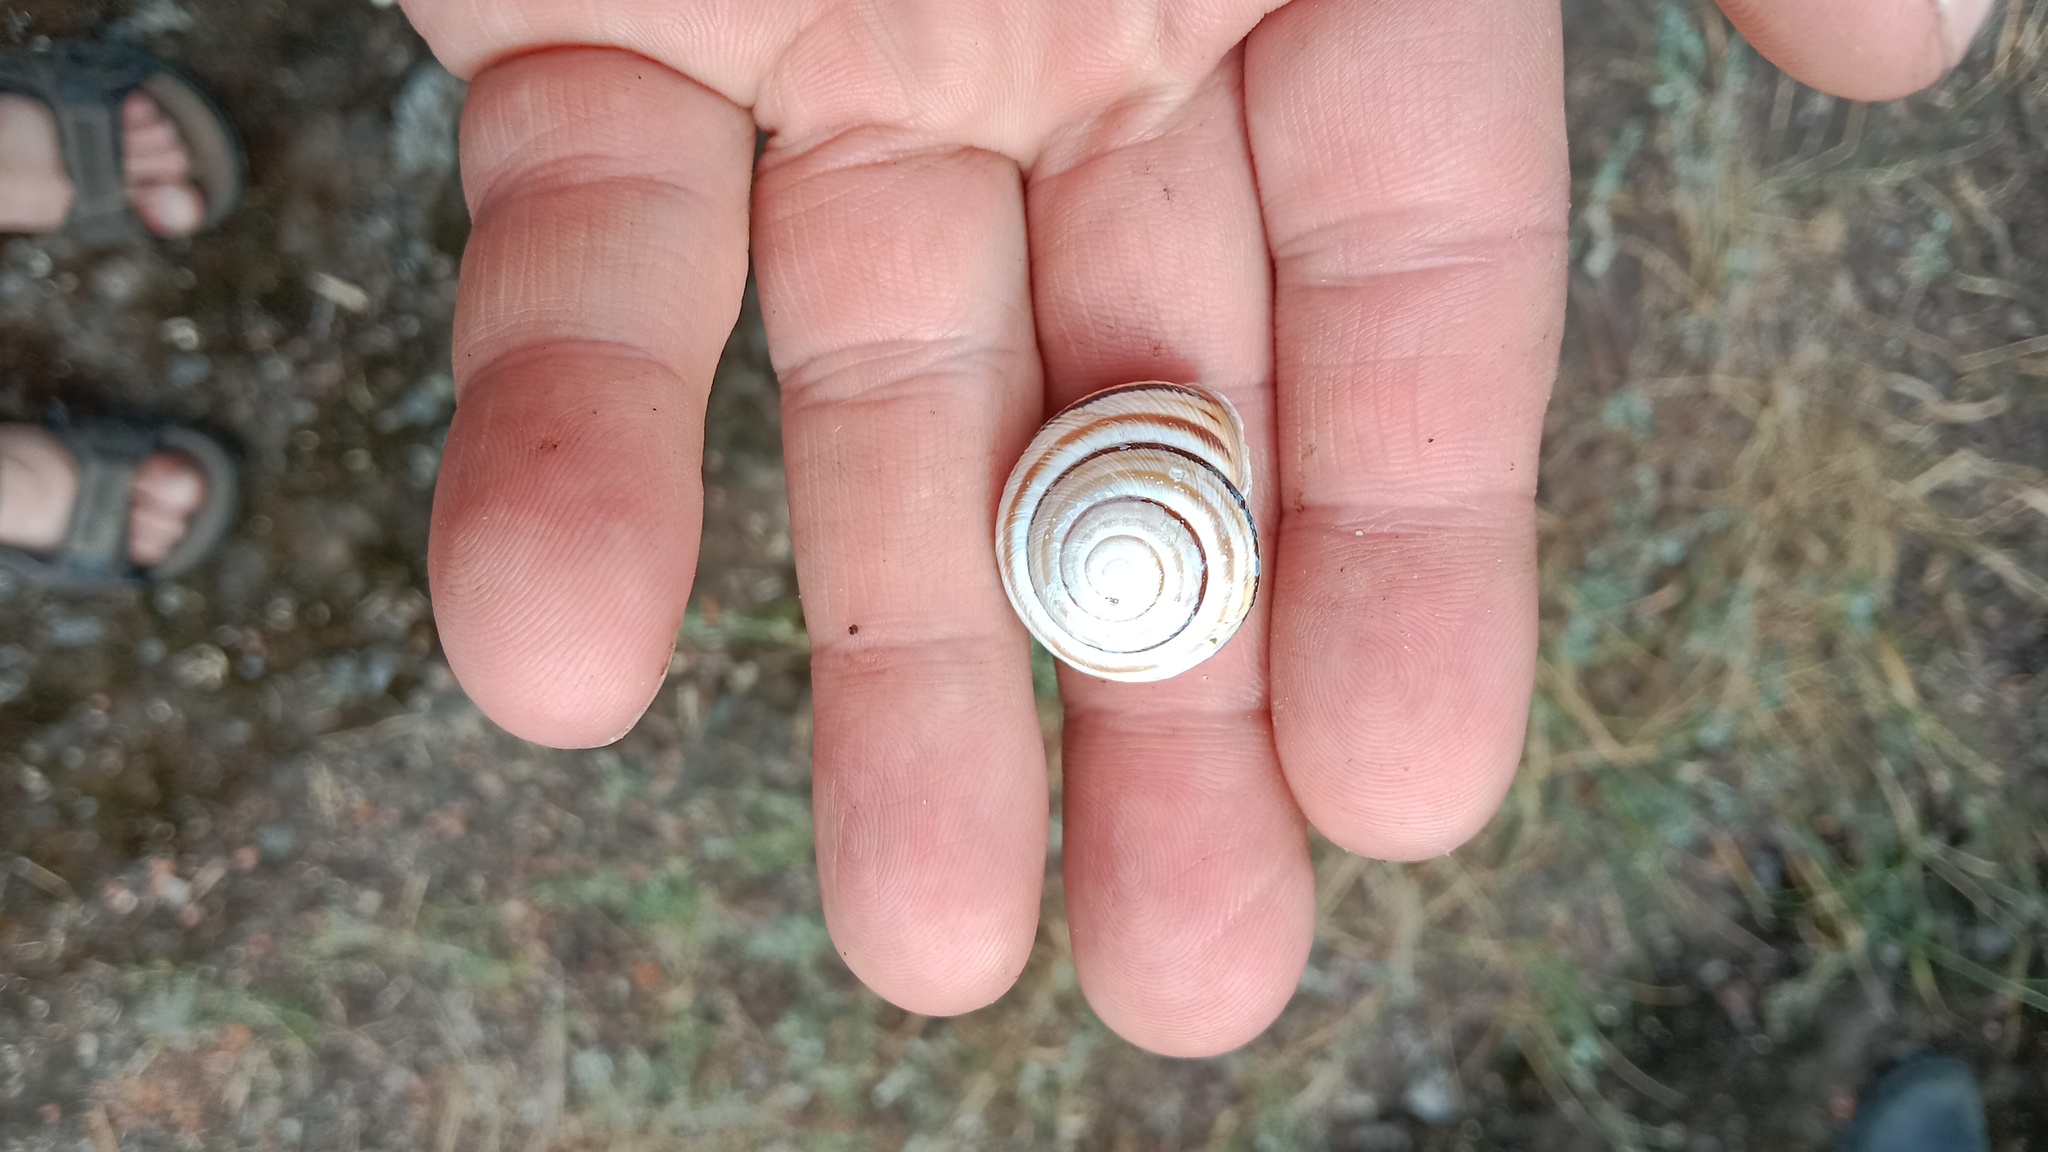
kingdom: Animalia
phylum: Mollusca
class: Gastropoda
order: Stylommatophora
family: Helicidae
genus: Caucasotachea
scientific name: Caucasotachea vindobonensis
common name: European helicid land snail
